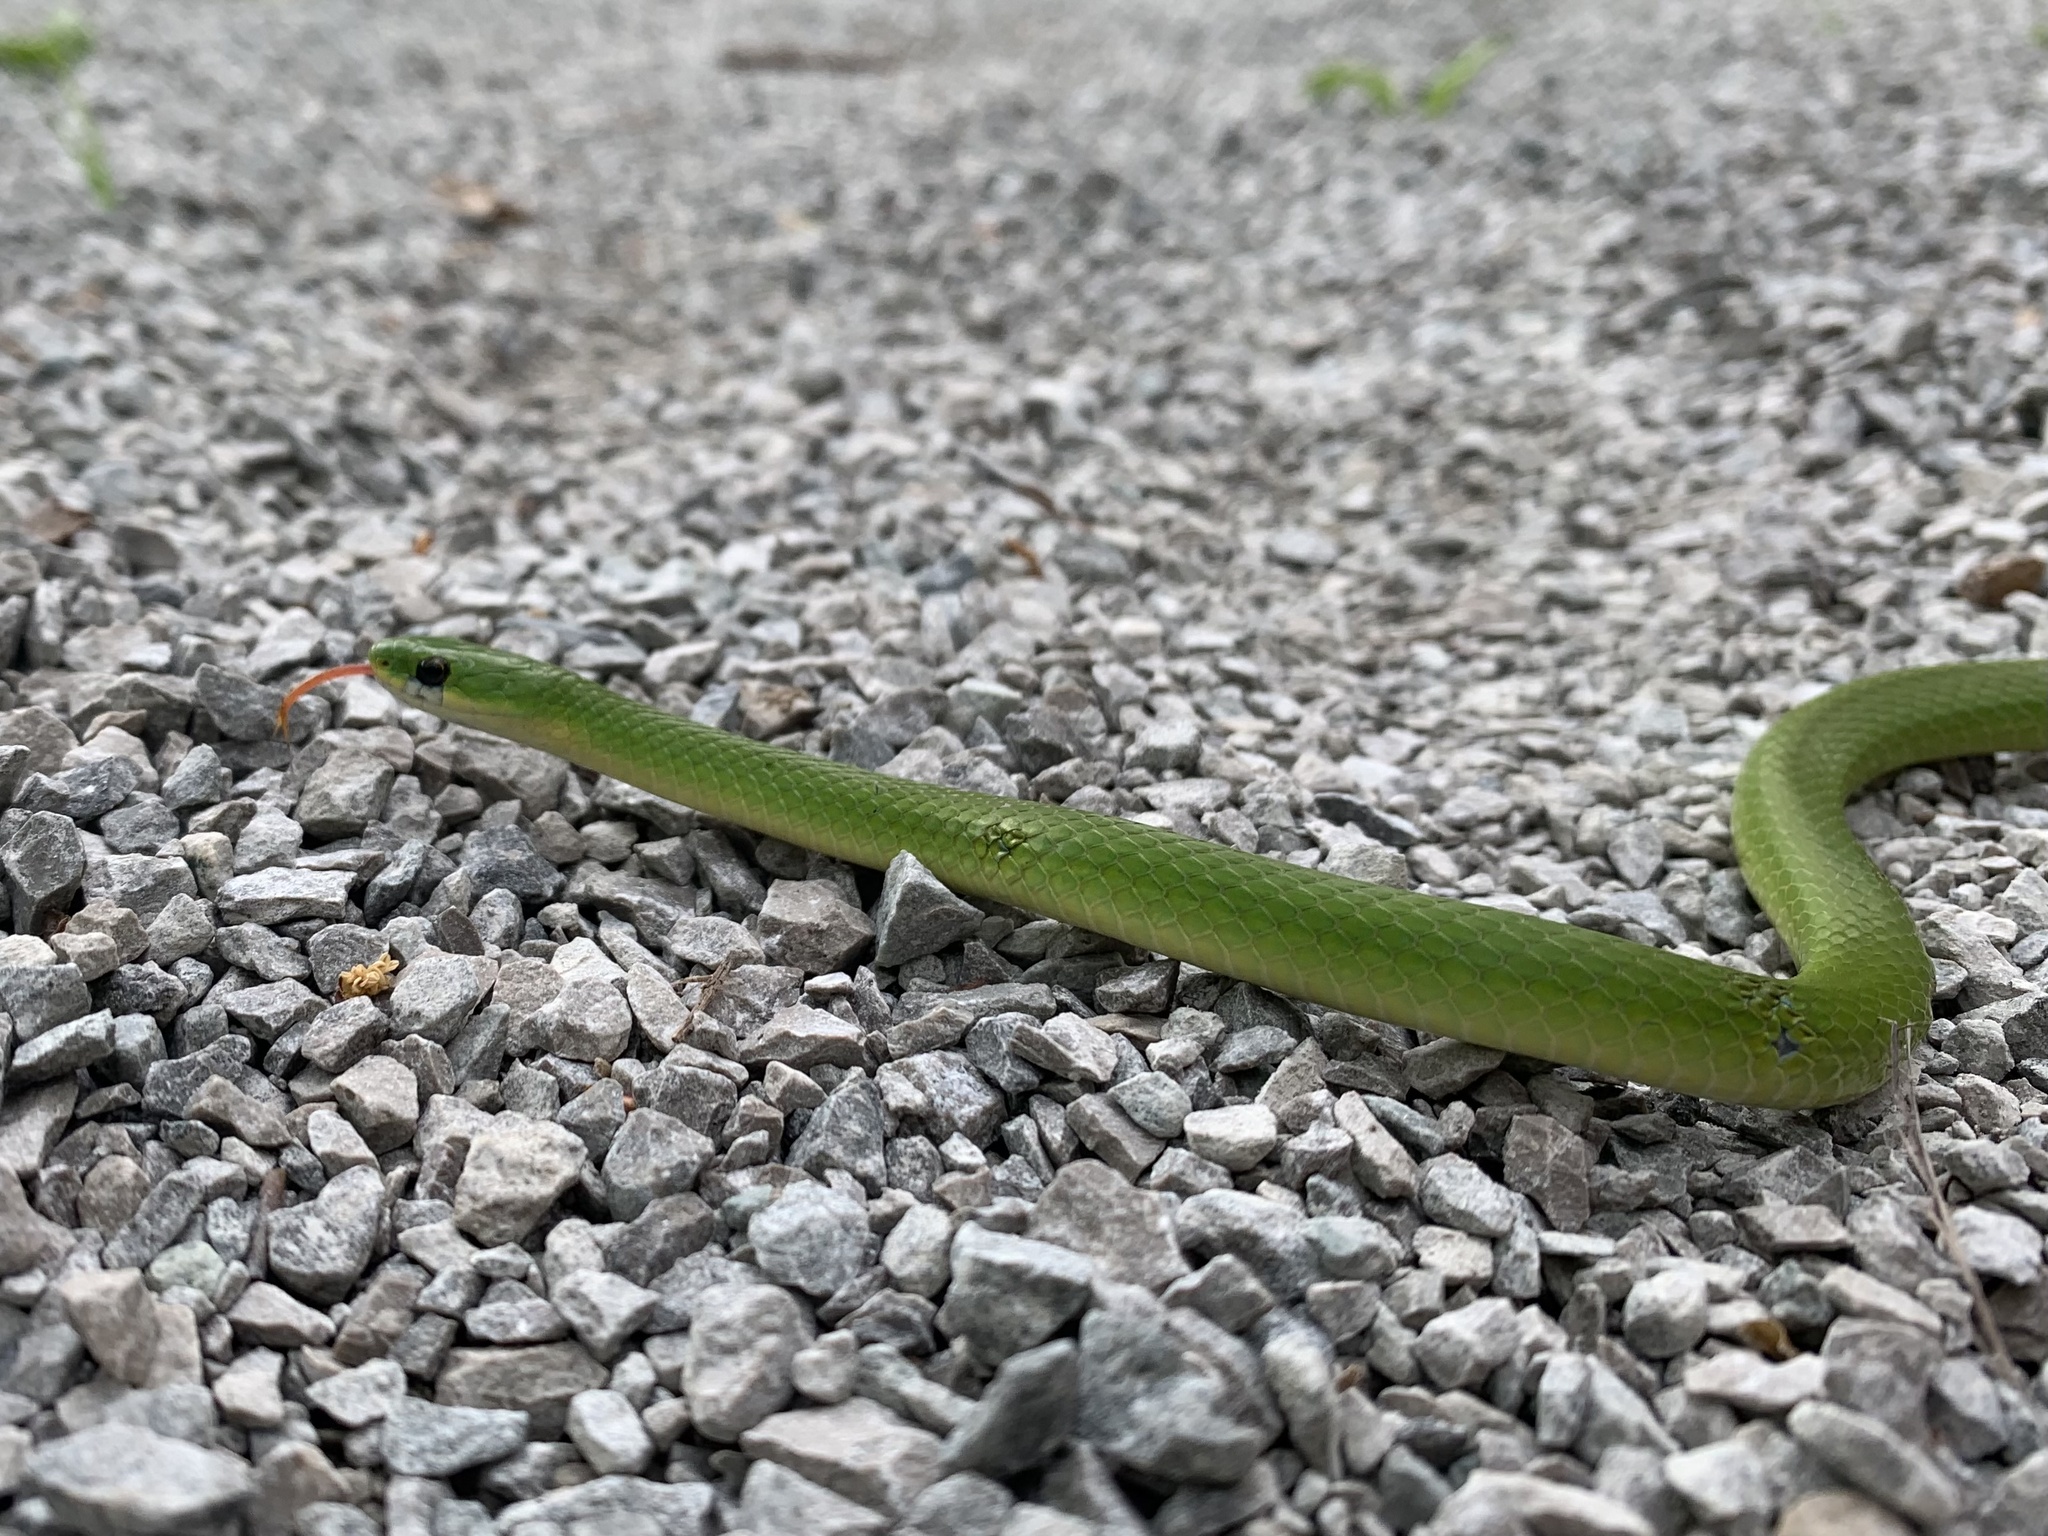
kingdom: Animalia
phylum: Chordata
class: Squamata
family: Colubridae
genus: Opheodrys
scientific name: Opheodrys vernalis
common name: Smooth green snake
